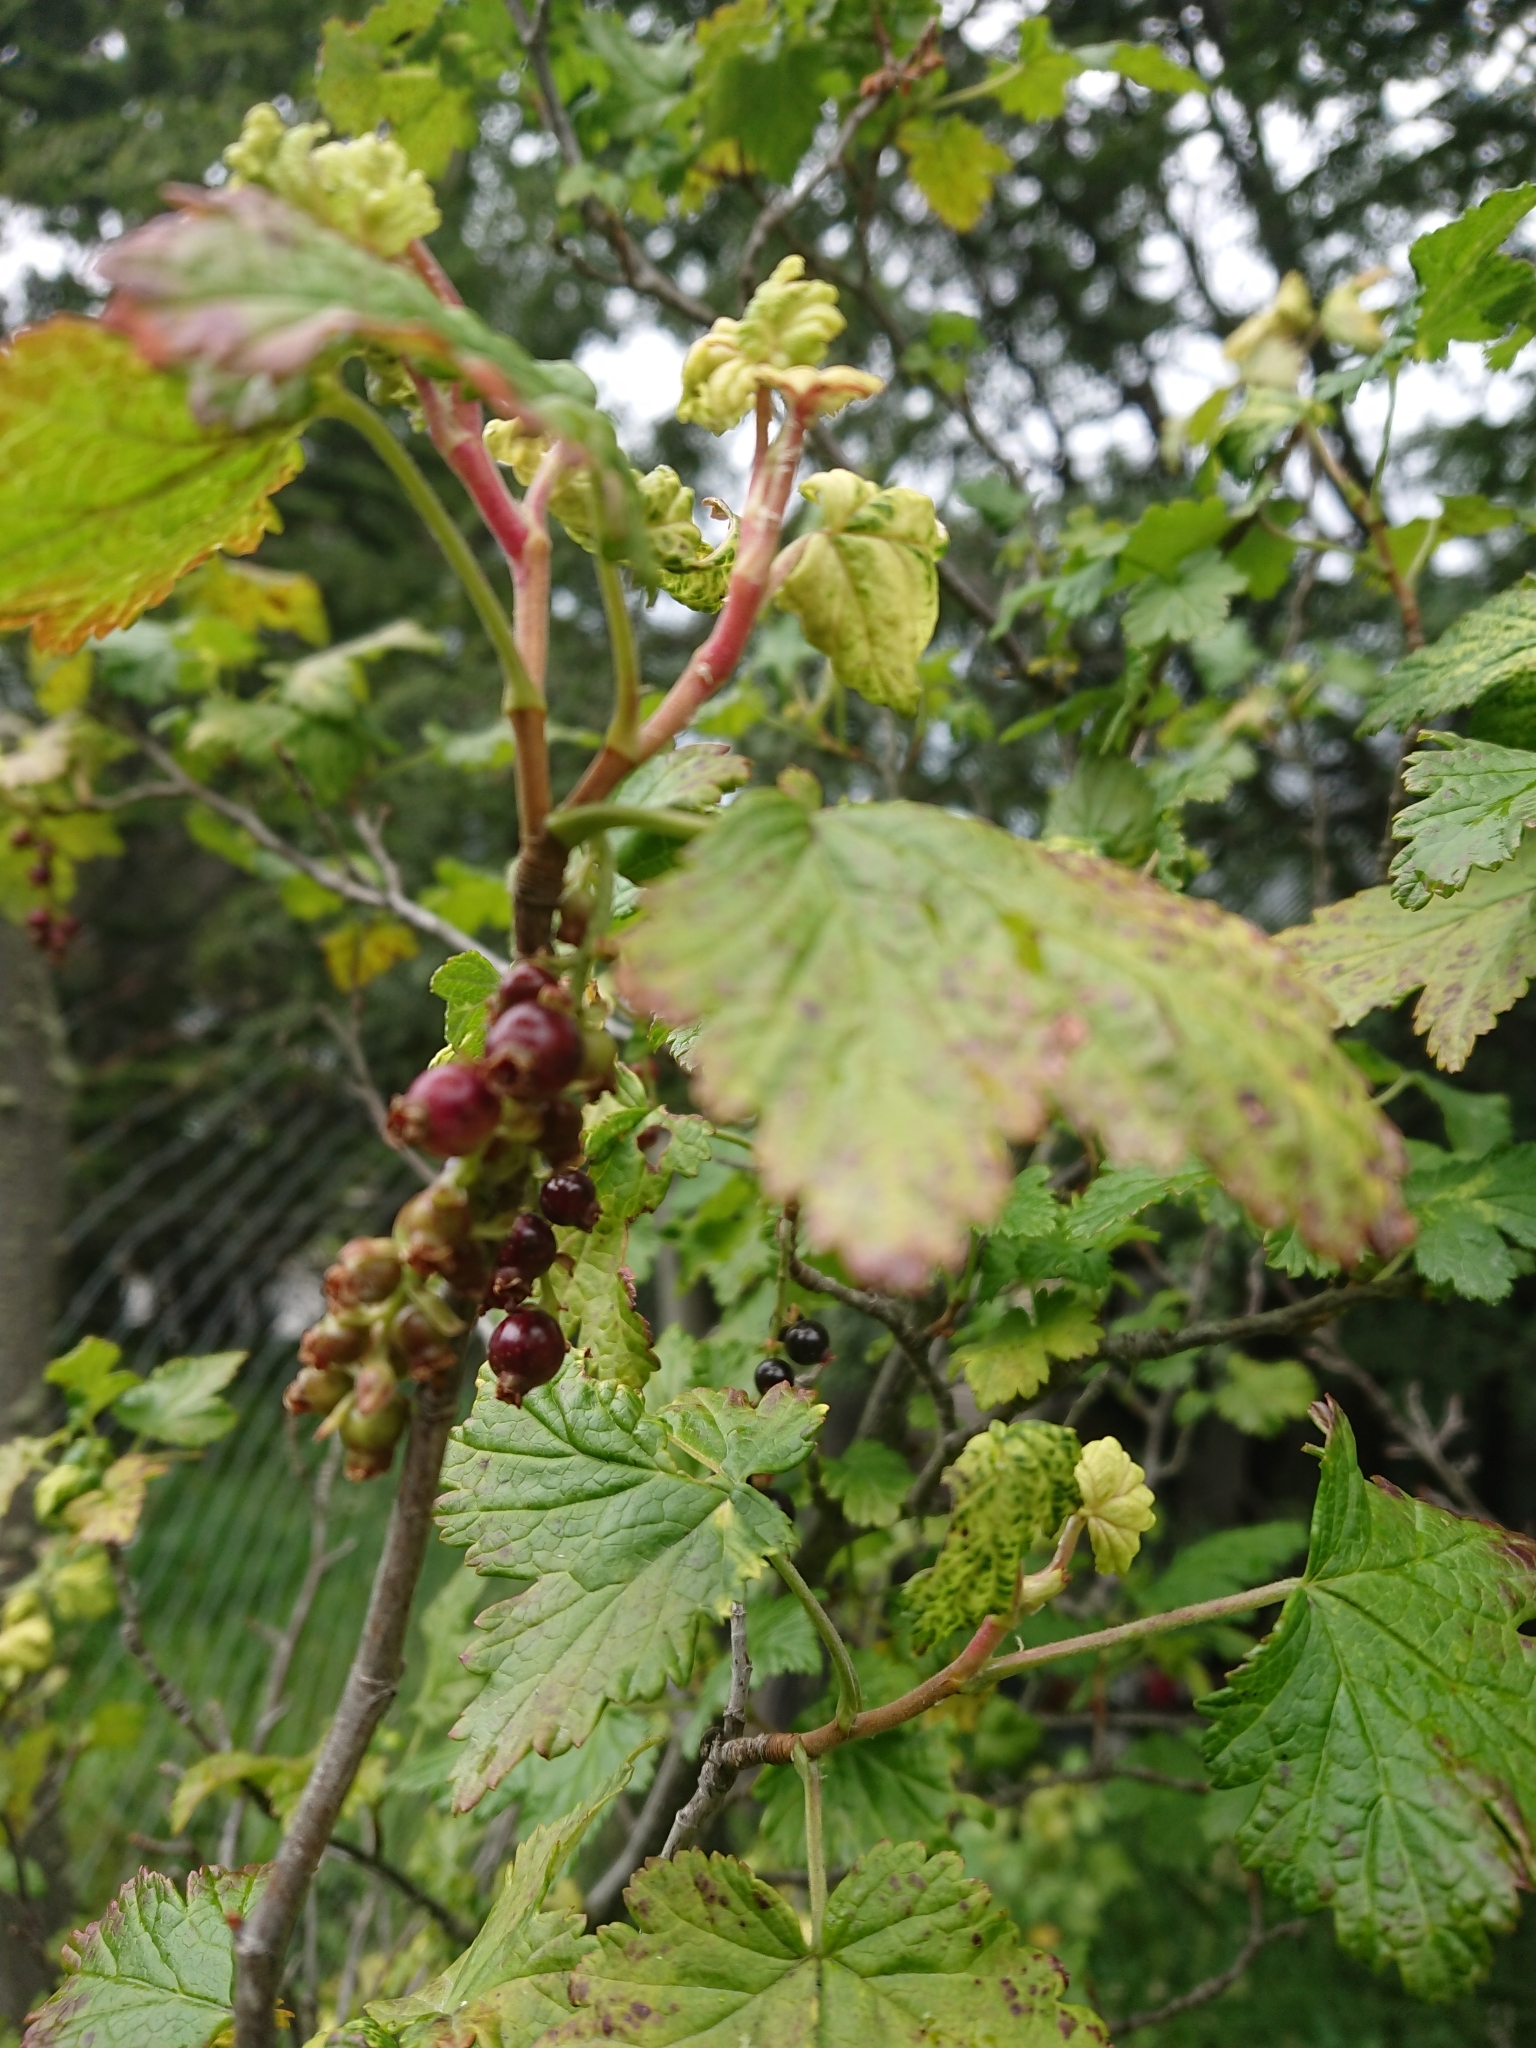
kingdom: Plantae
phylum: Tracheophyta
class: Magnoliopsida
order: Saxifragales
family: Grossulariaceae
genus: Ribes
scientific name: Ribes magellanicum
